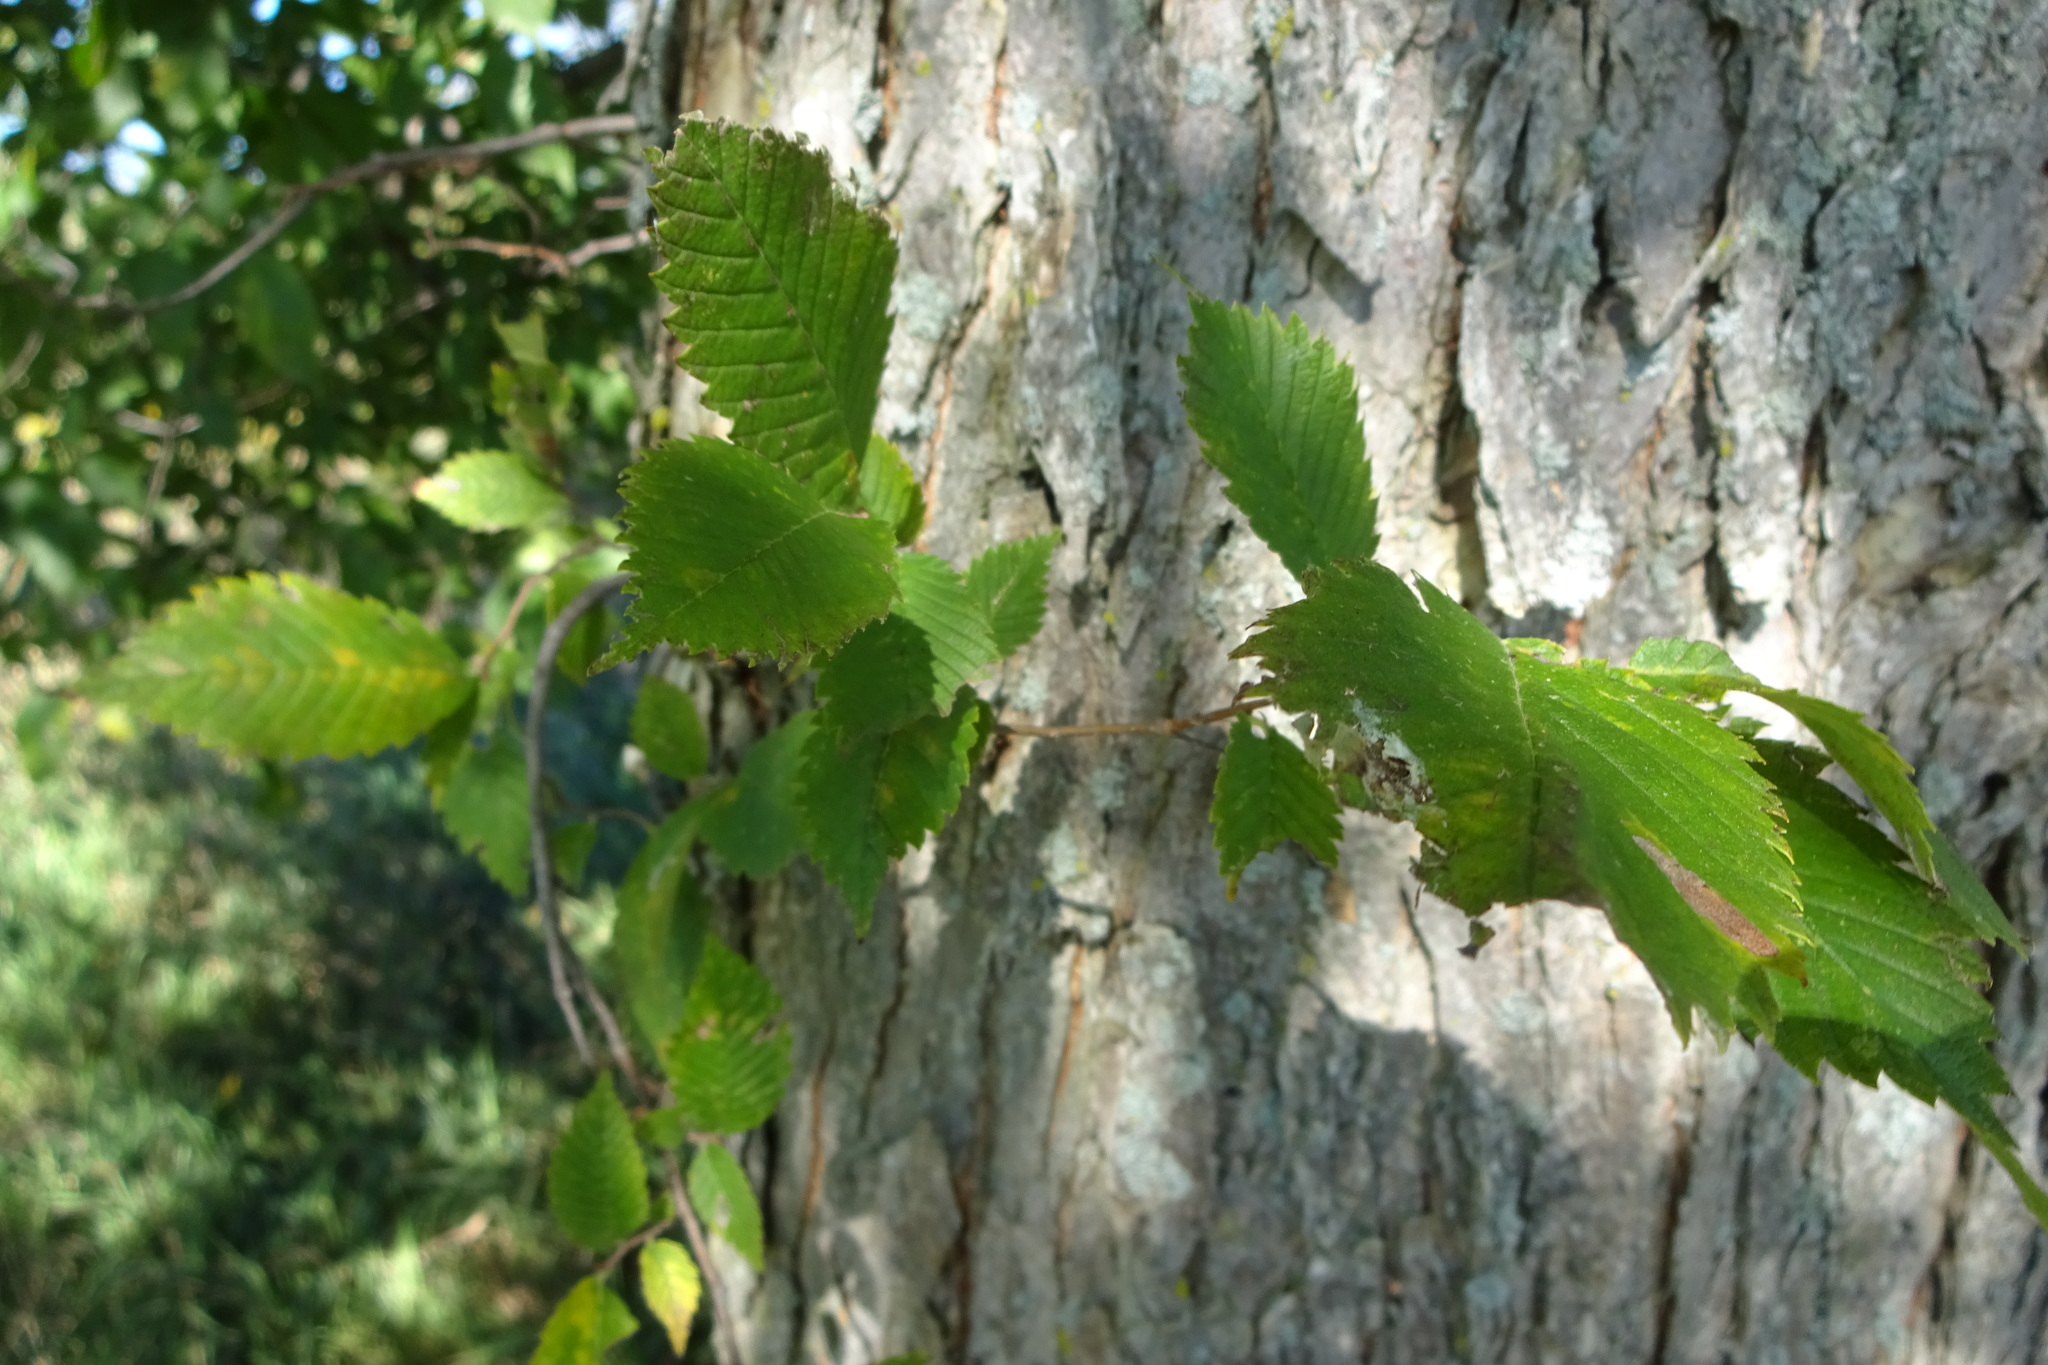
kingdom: Plantae
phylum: Tracheophyta
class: Magnoliopsida
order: Rosales
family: Ulmaceae
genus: Ulmus
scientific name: Ulmus americana
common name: American elm
